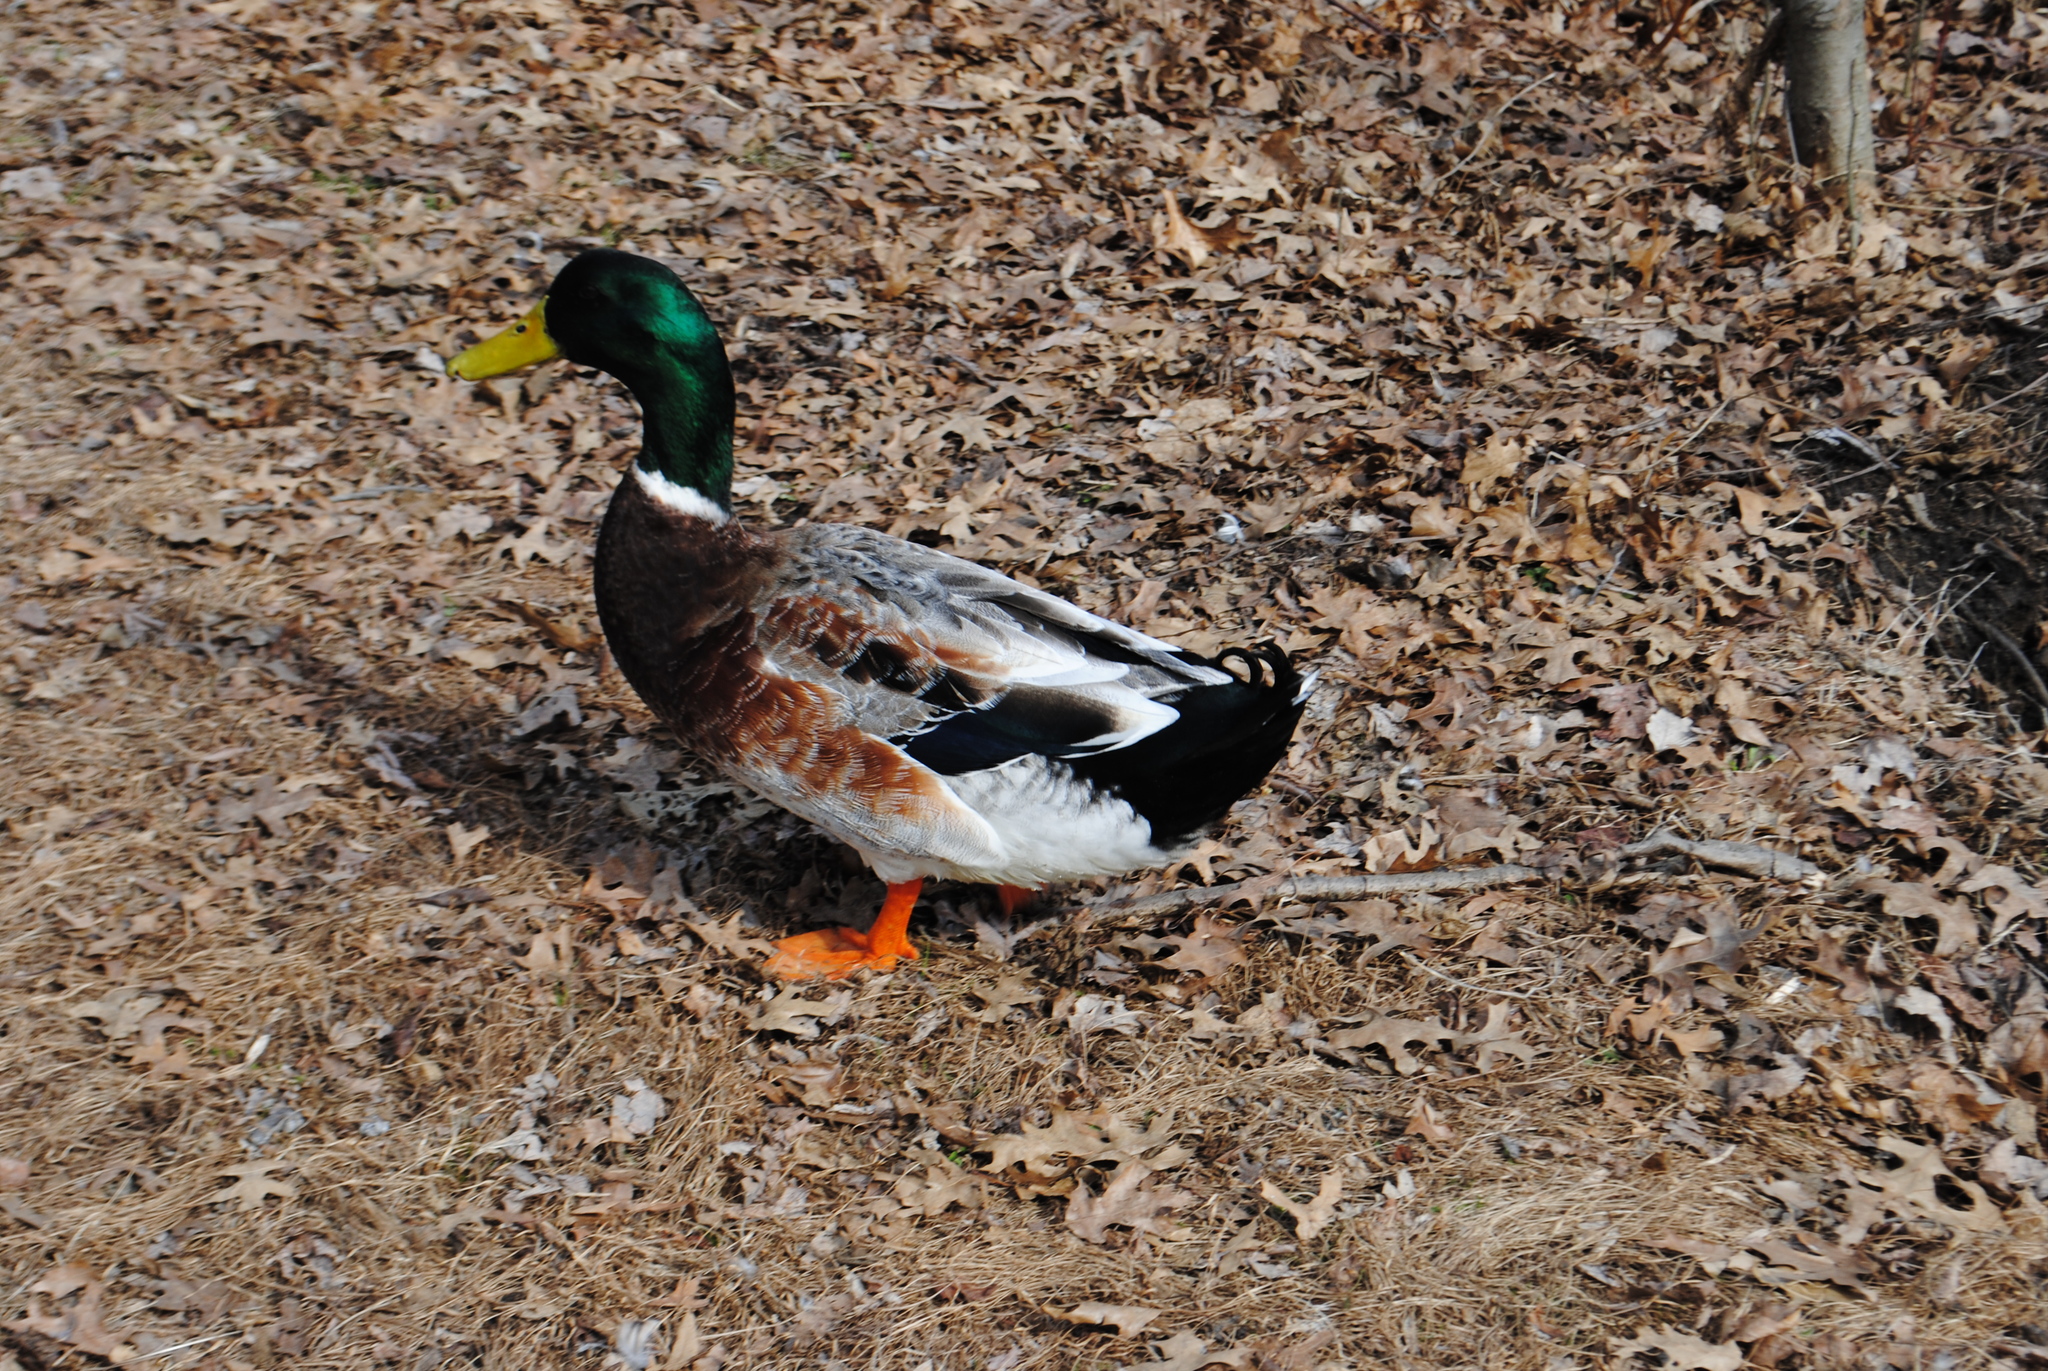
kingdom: Animalia
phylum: Chordata
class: Aves
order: Anseriformes
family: Anatidae
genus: Anas
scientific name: Anas platyrhynchos
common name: Mallard
